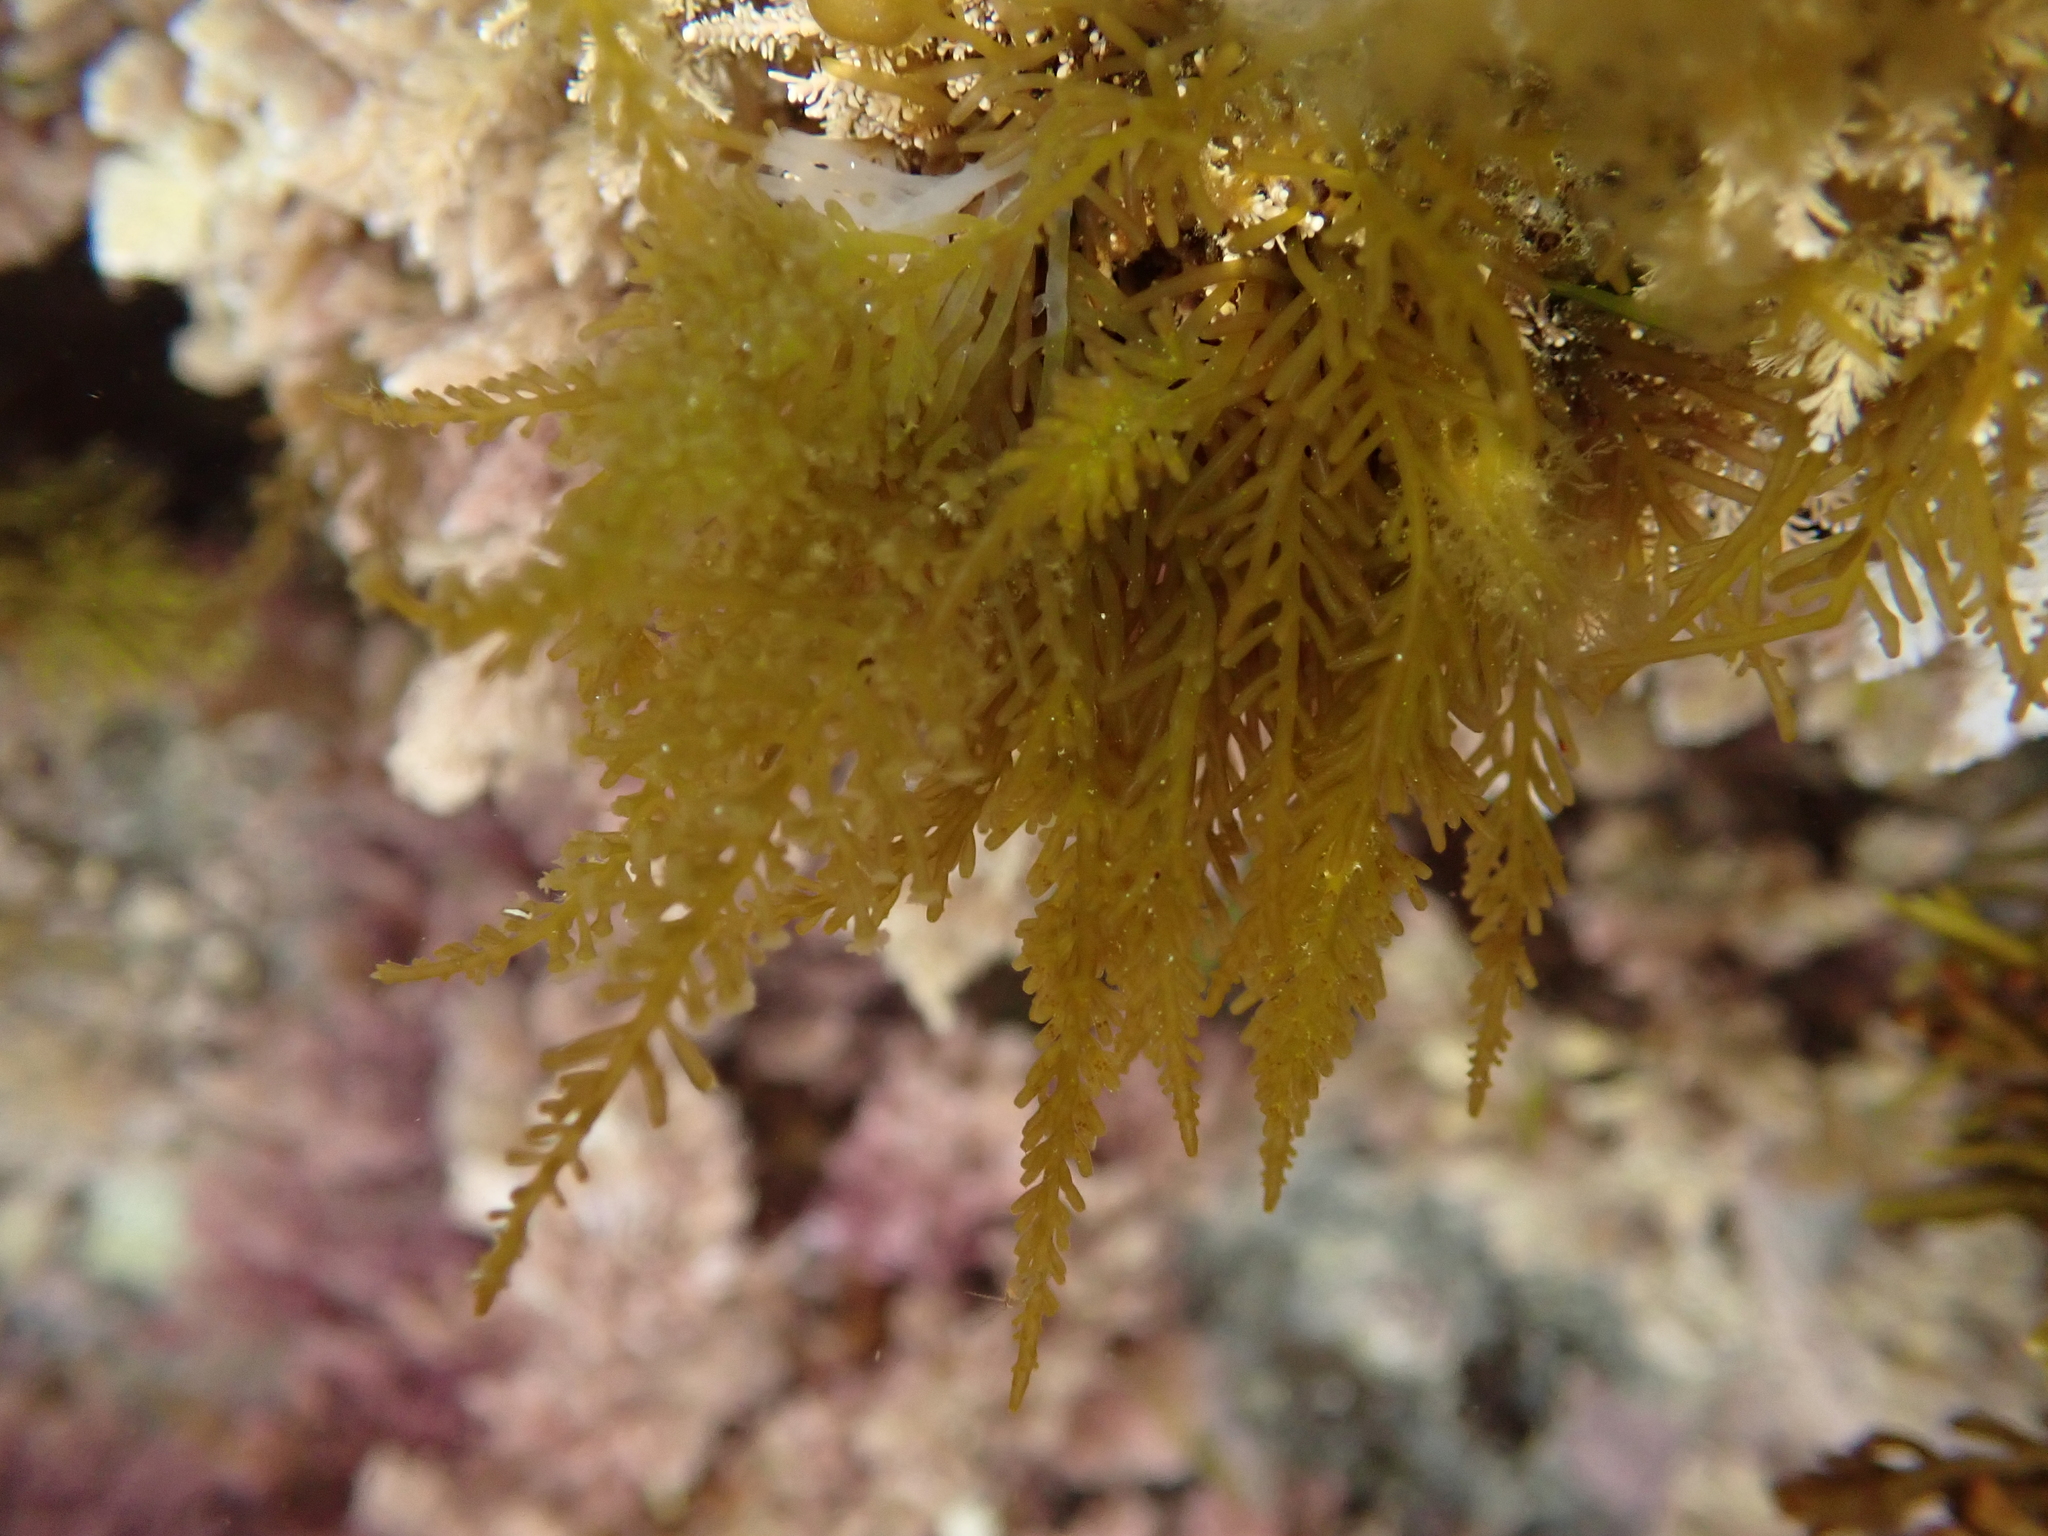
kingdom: Plantae
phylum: Rhodophyta
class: Florideophyceae
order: Ceramiales
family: Rhodomelaceae
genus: Laurencia
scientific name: Laurencia thyrsifera
